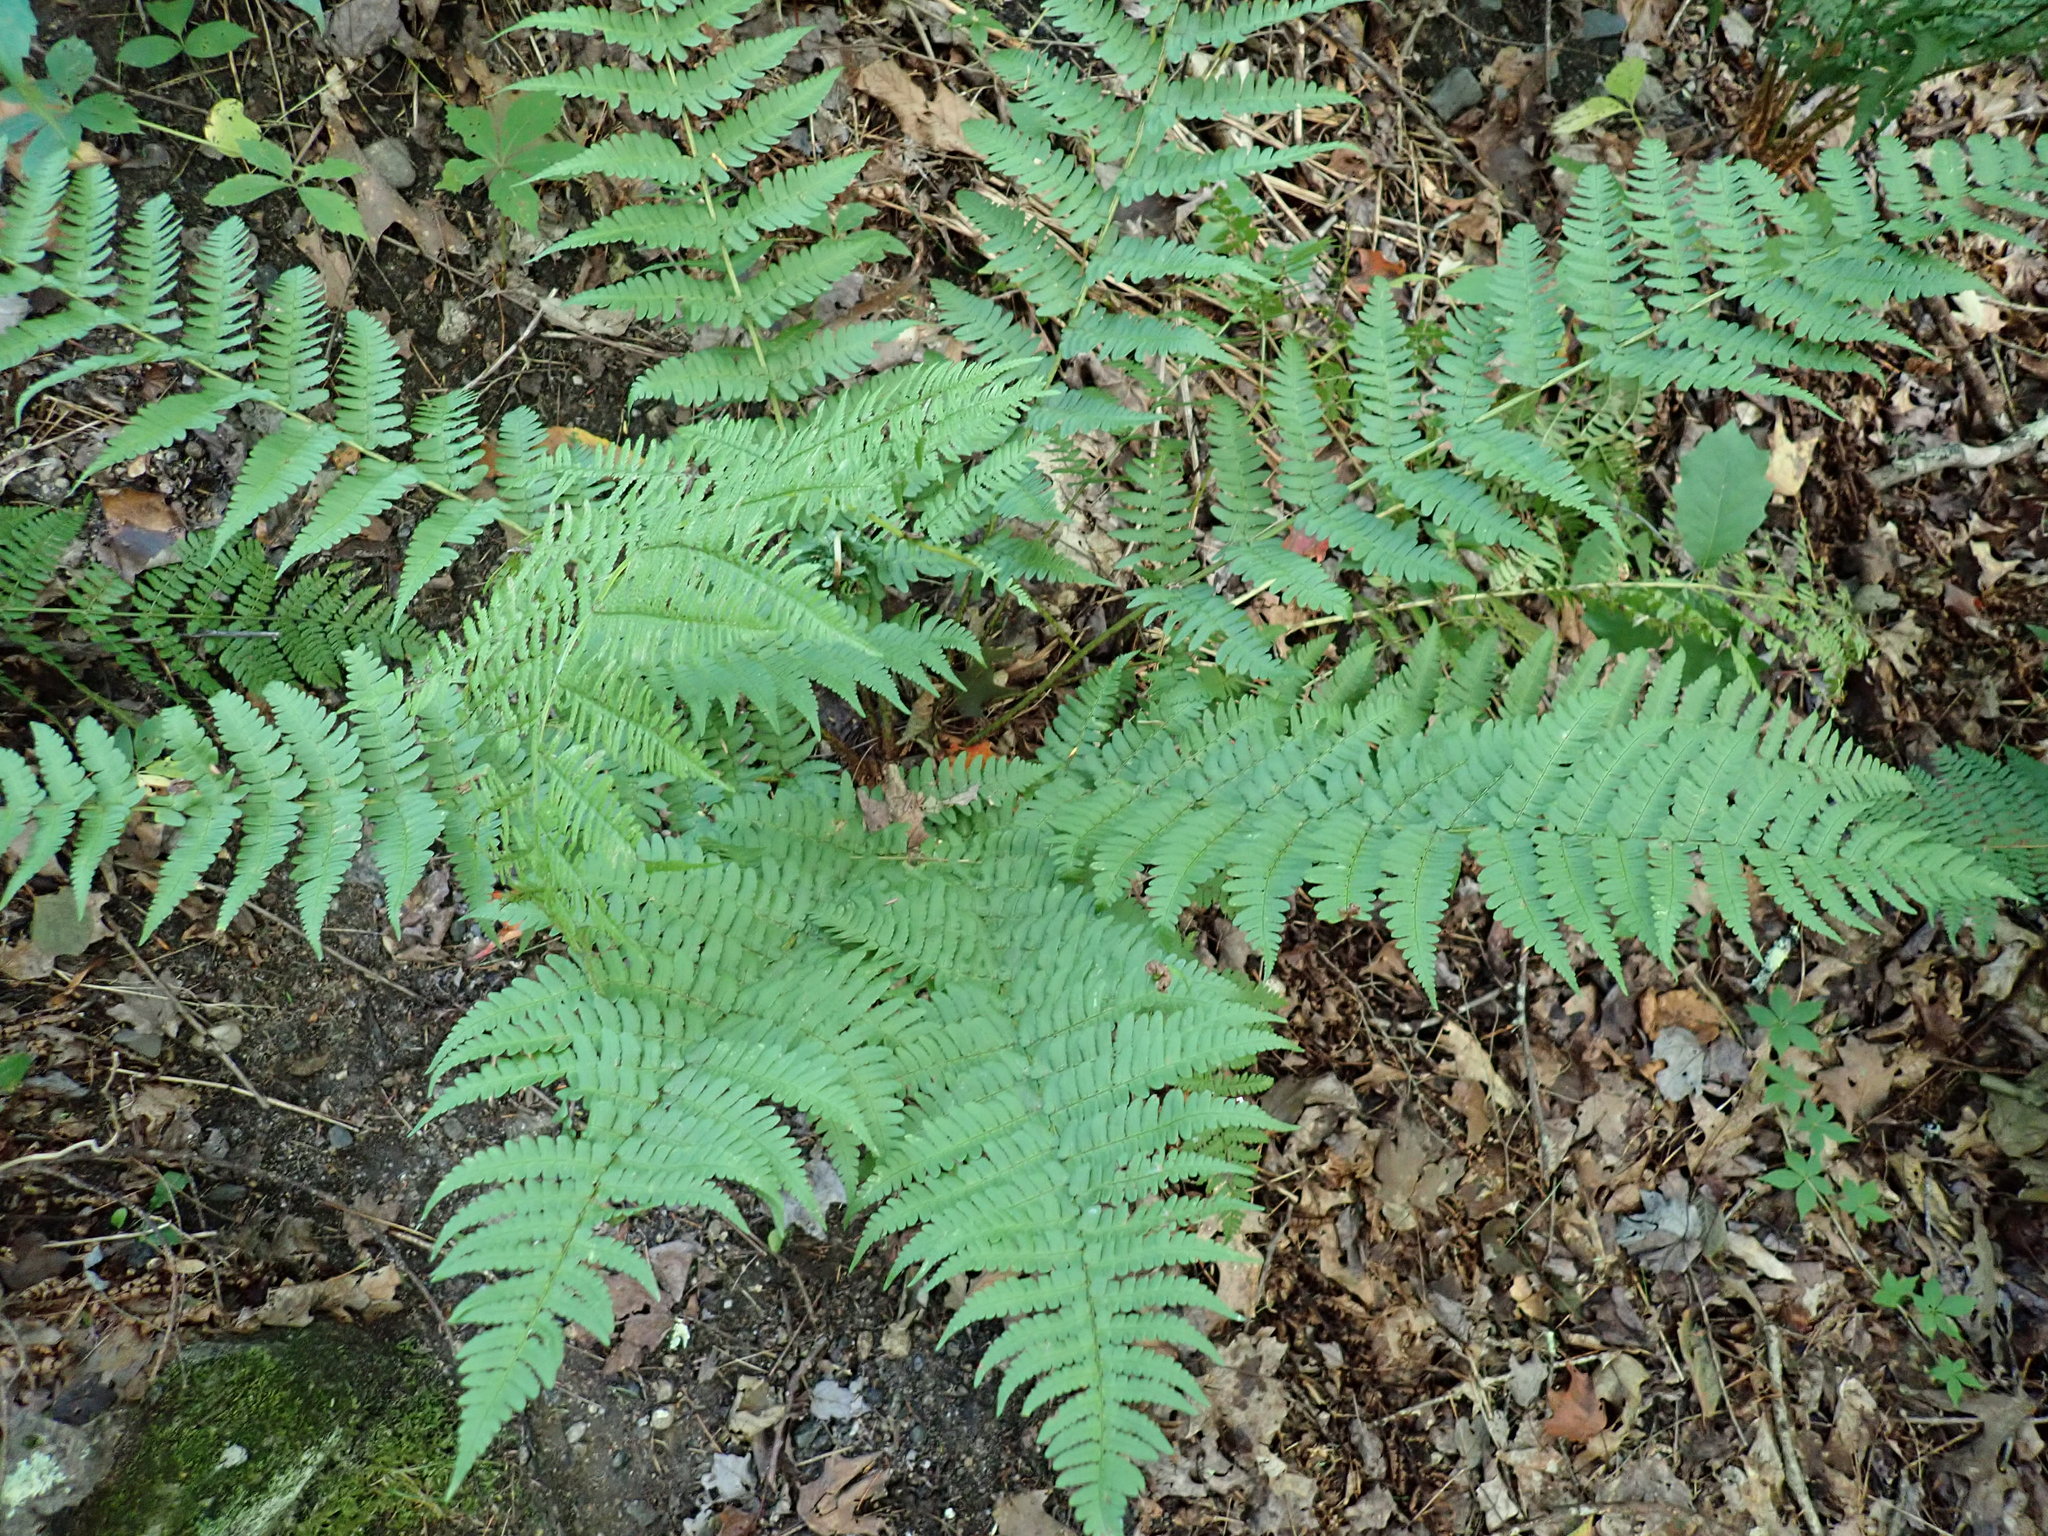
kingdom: Plantae
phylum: Tracheophyta
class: Polypodiopsida
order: Polypodiales
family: Dryopteridaceae
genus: Dryopteris
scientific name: Dryopteris marginalis
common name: Marginal wood fern
